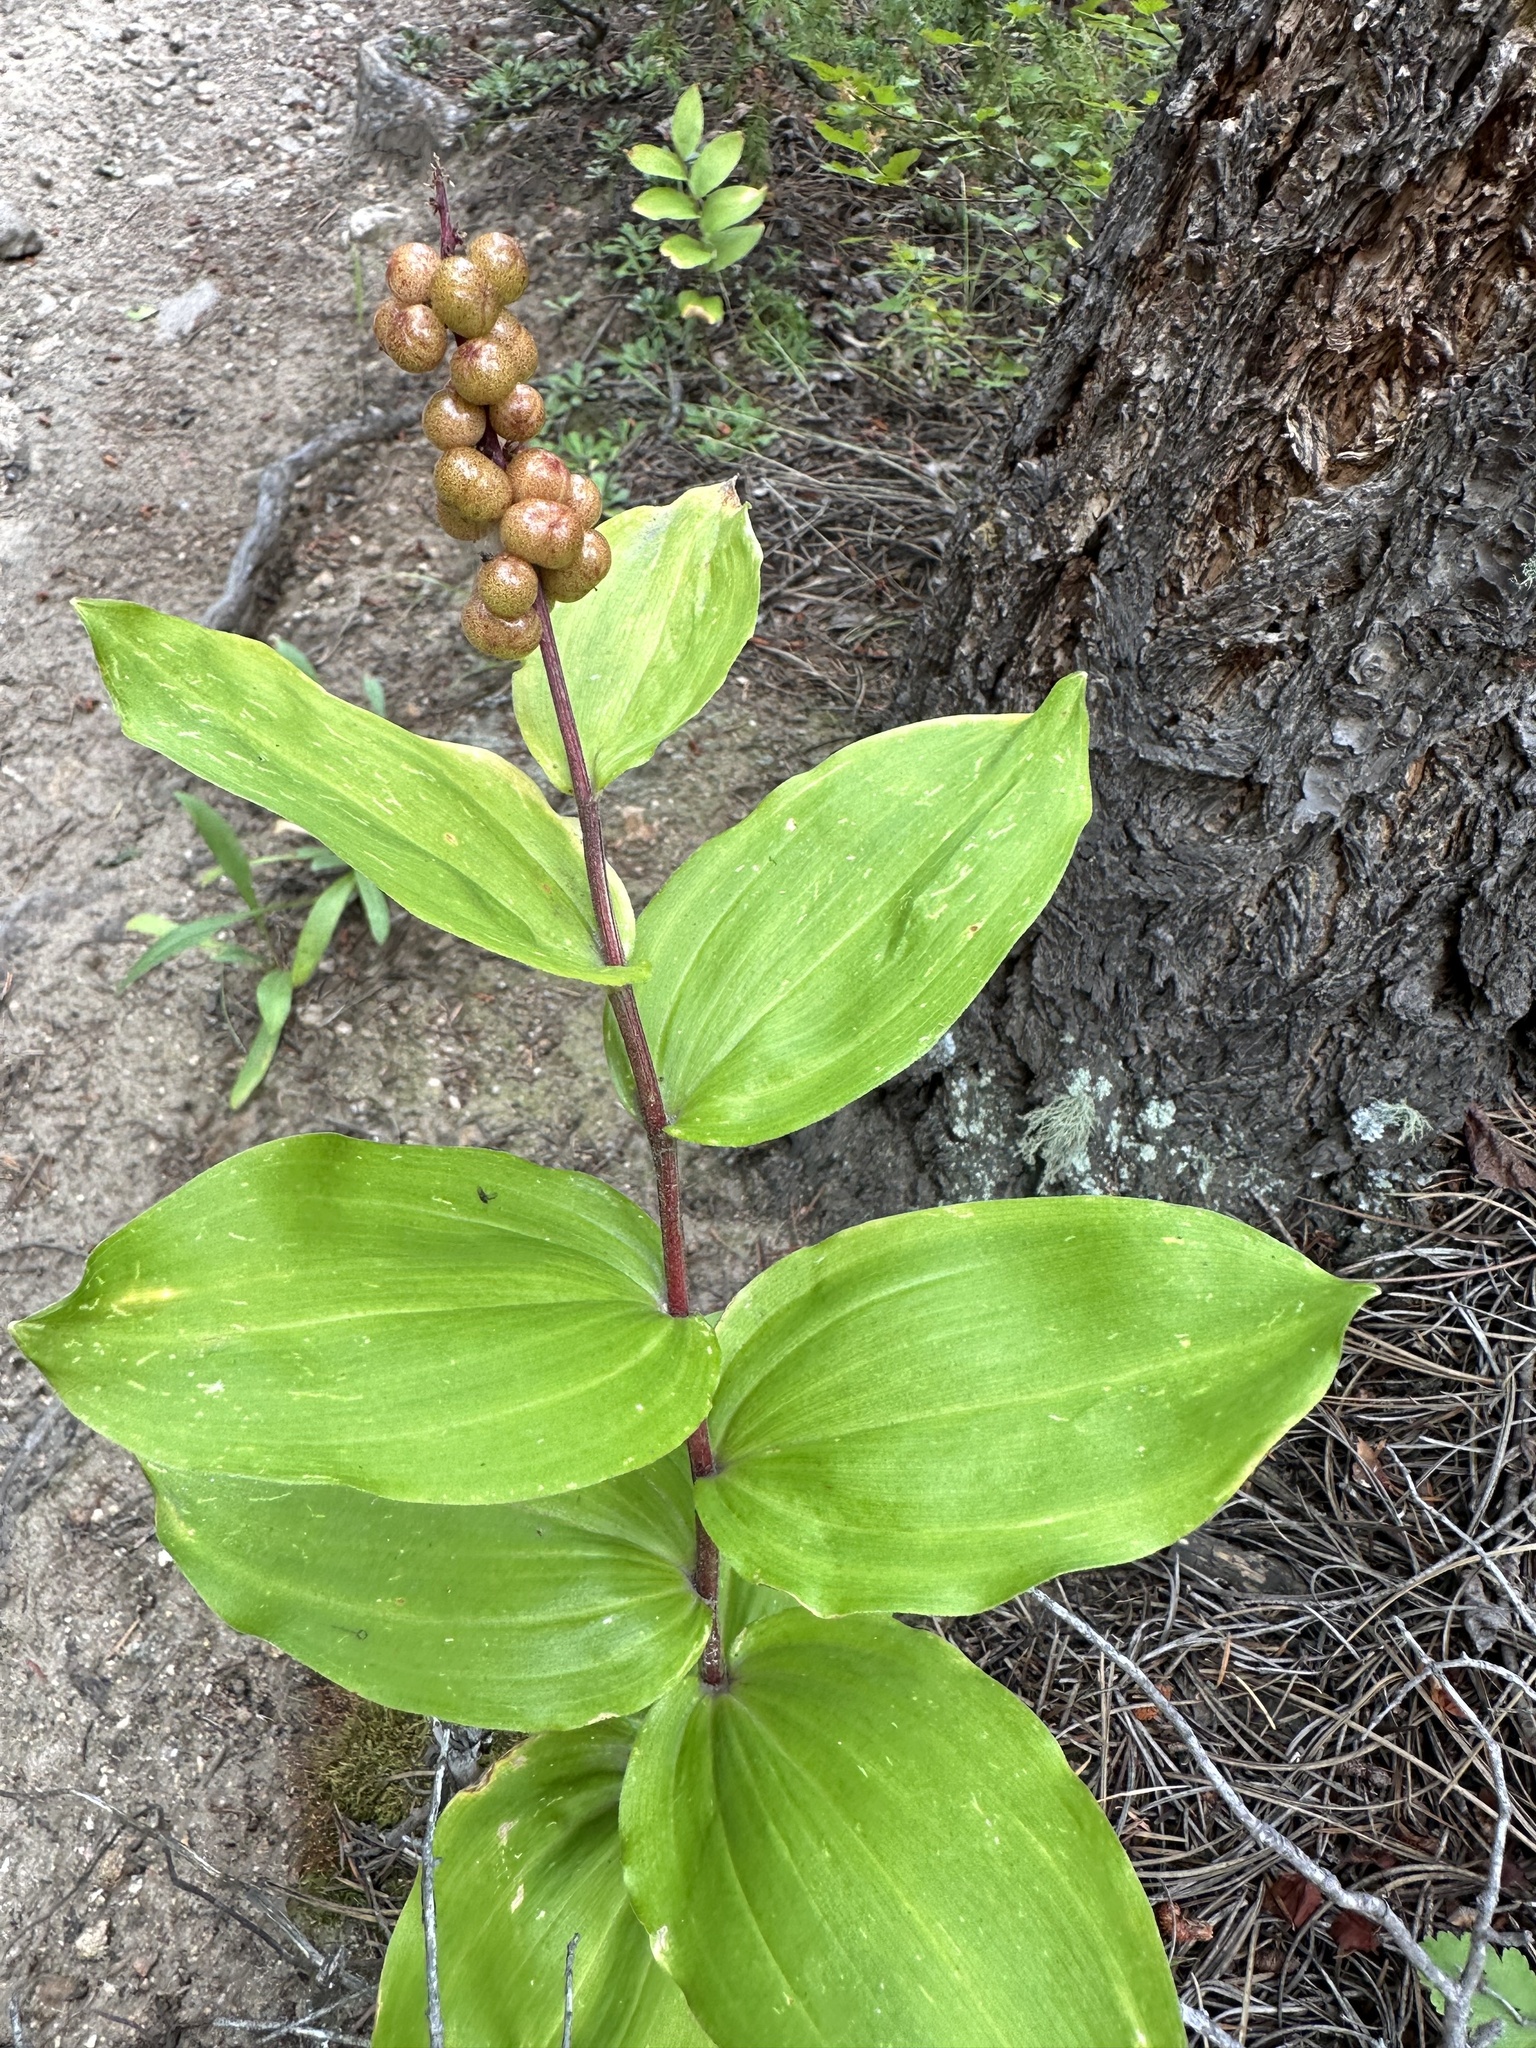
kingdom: Plantae
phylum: Tracheophyta
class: Liliopsida
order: Asparagales
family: Asparagaceae
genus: Maianthemum
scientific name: Maianthemum racemosum
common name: False spikenard
